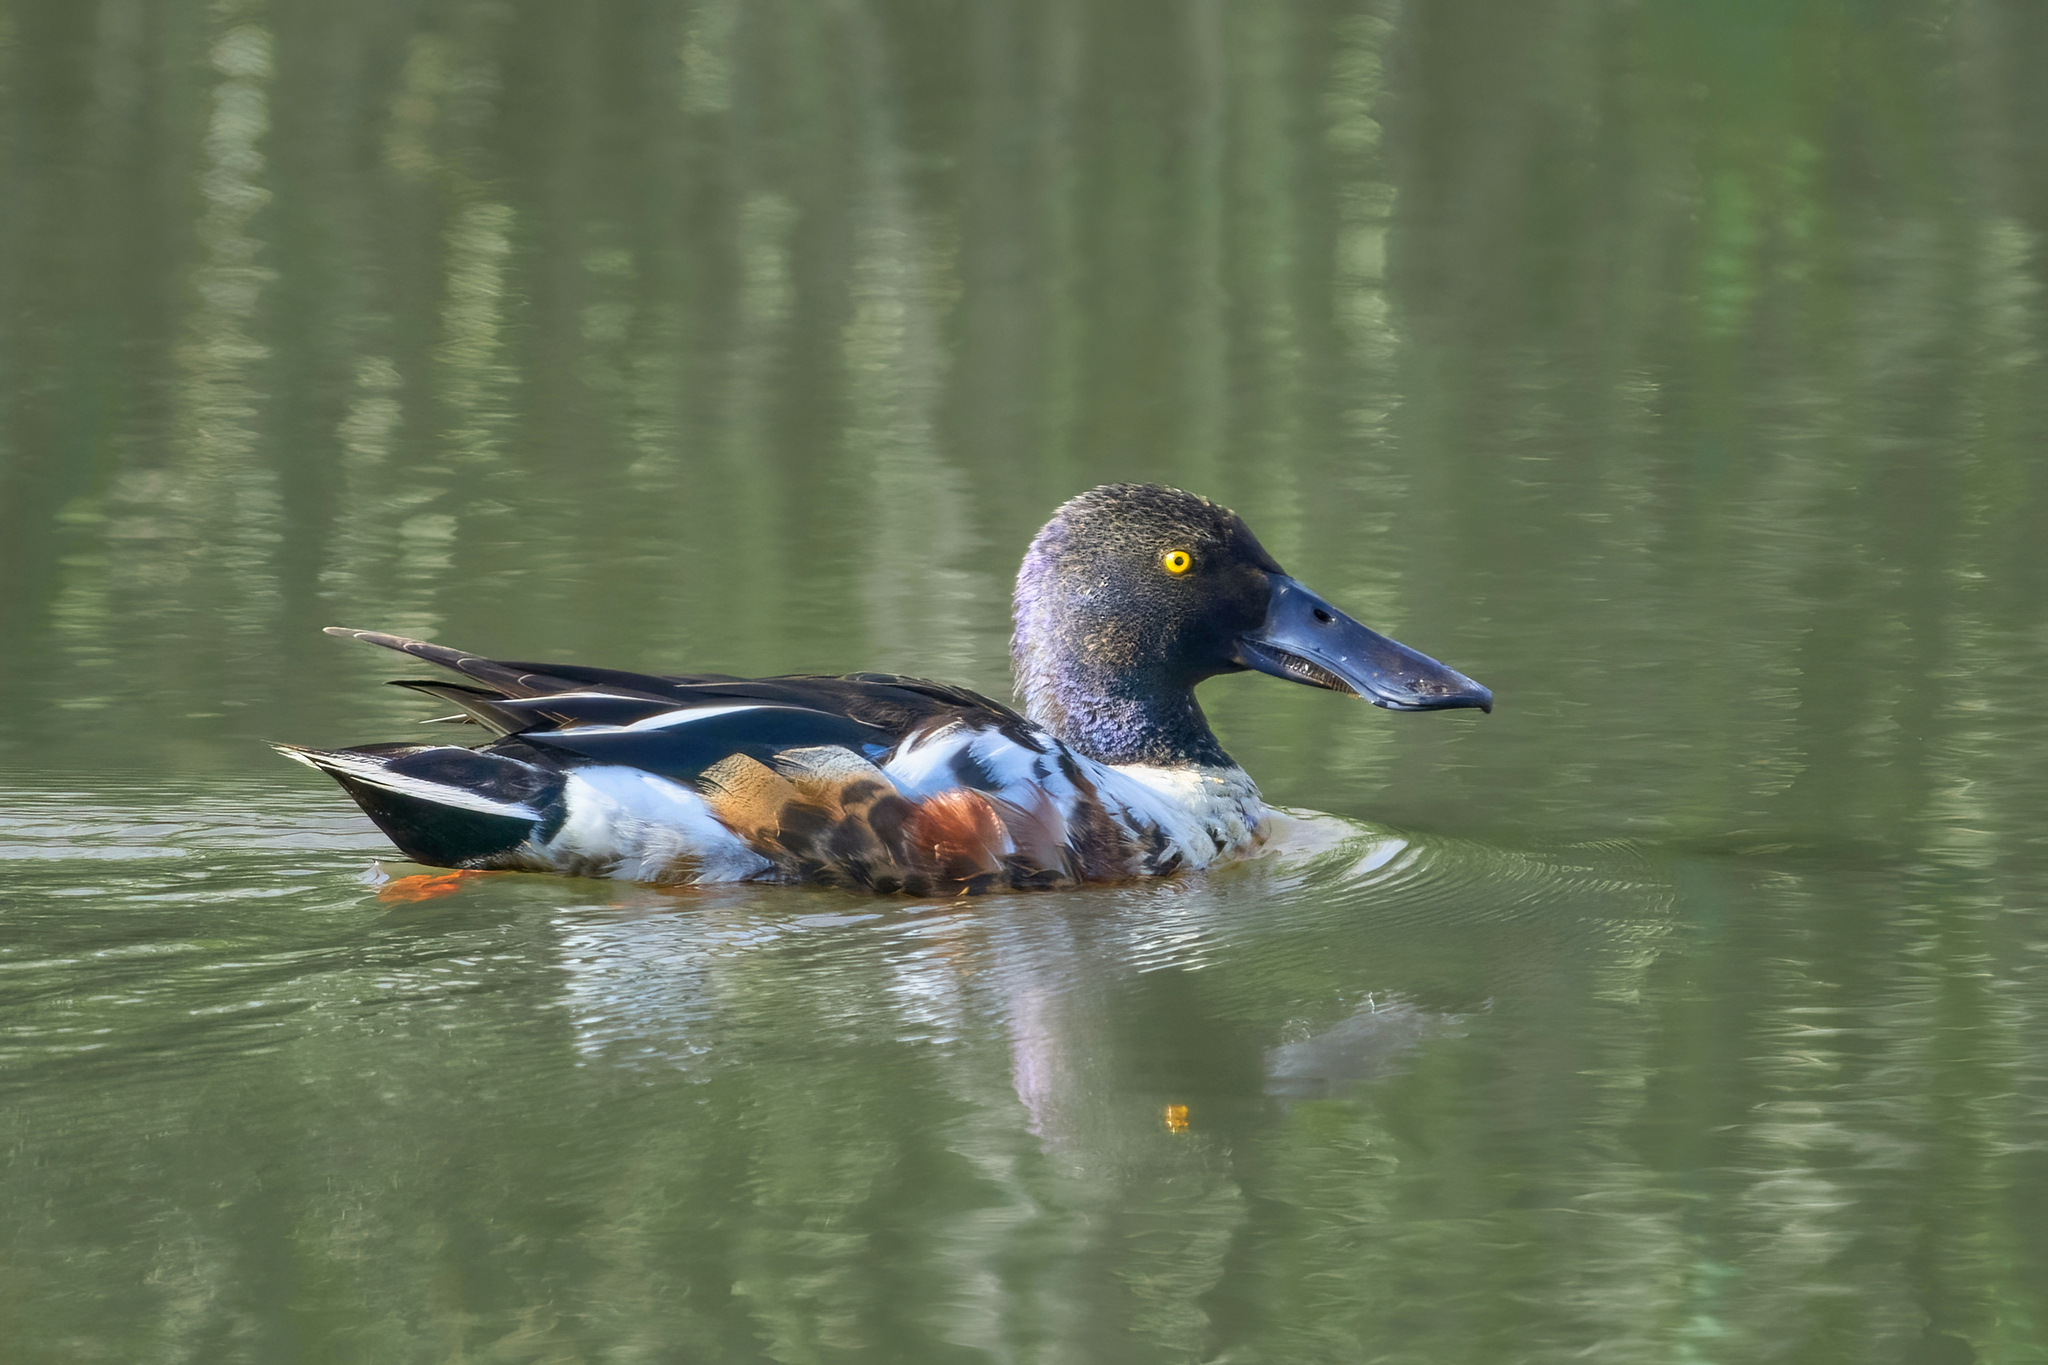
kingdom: Animalia
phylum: Chordata
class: Aves
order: Anseriformes
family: Anatidae
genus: Spatula
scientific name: Spatula clypeata
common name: Northern shoveler
